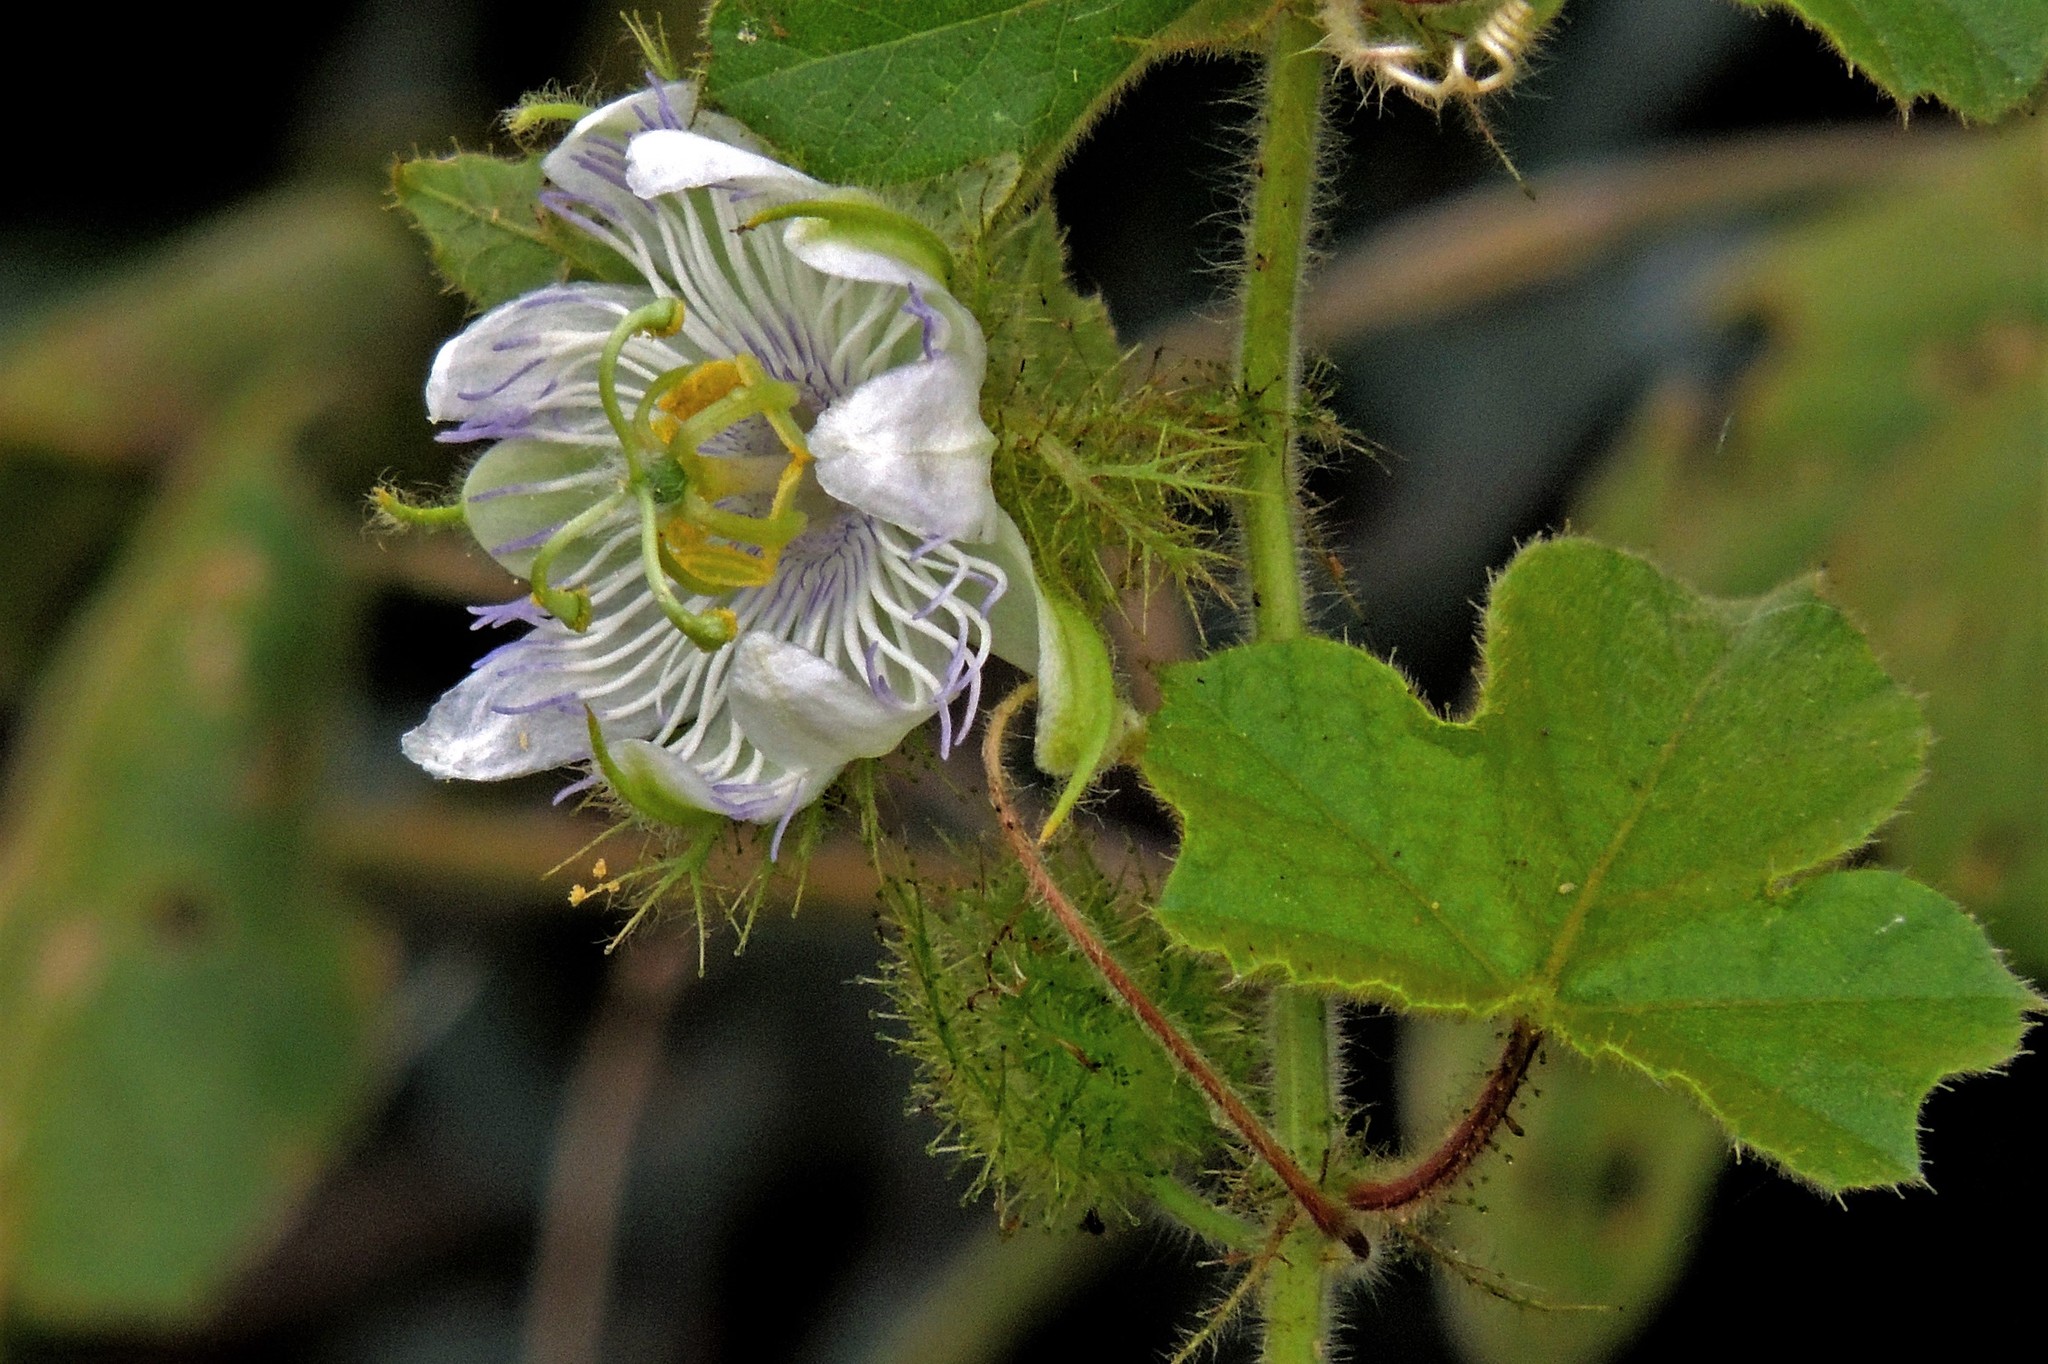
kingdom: Plantae
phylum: Tracheophyta
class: Magnoliopsida
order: Malpighiales
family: Passifloraceae
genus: Passiflora
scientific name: Passiflora foetida
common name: Fetid passionflower
